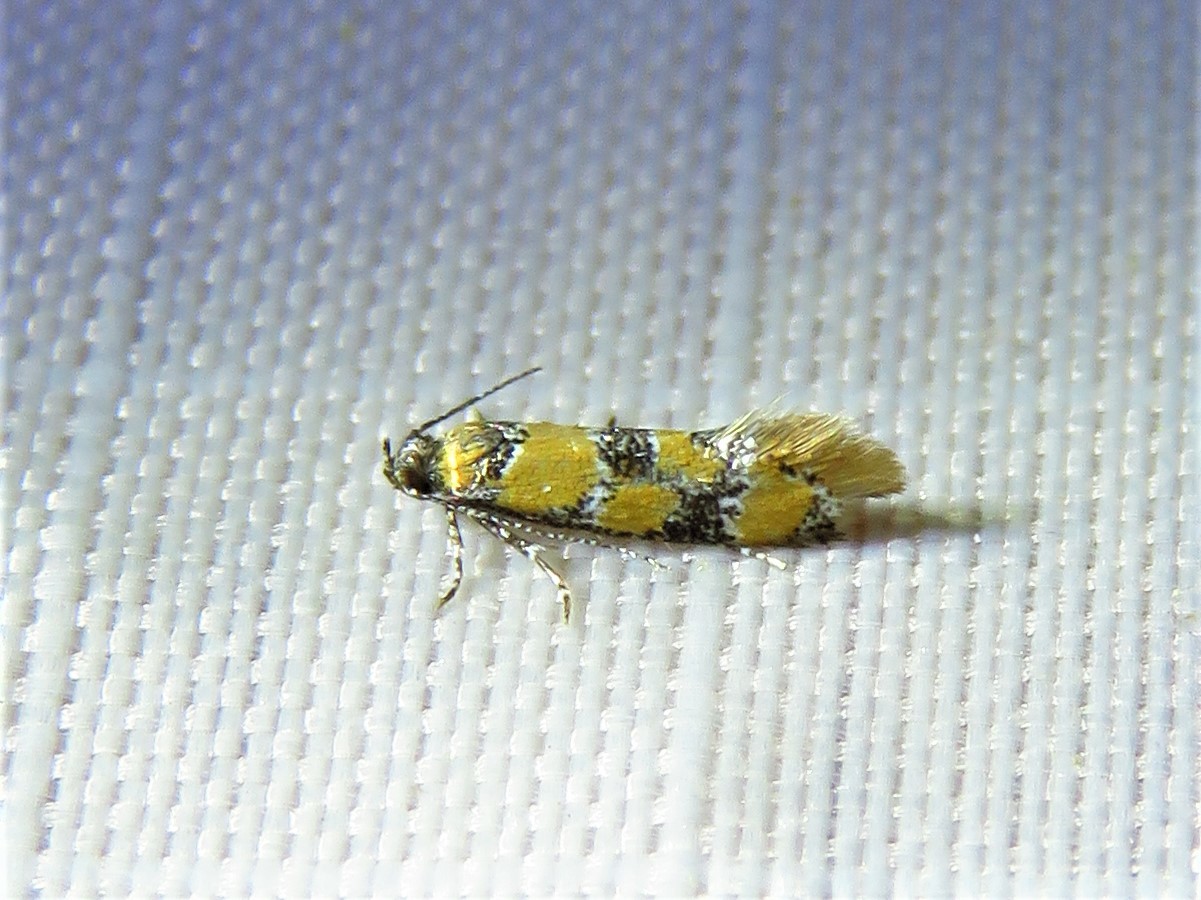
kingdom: Animalia
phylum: Arthropoda
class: Insecta
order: Lepidoptera
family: Oecophoridae
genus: Decantha
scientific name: Decantha borkhausenii
